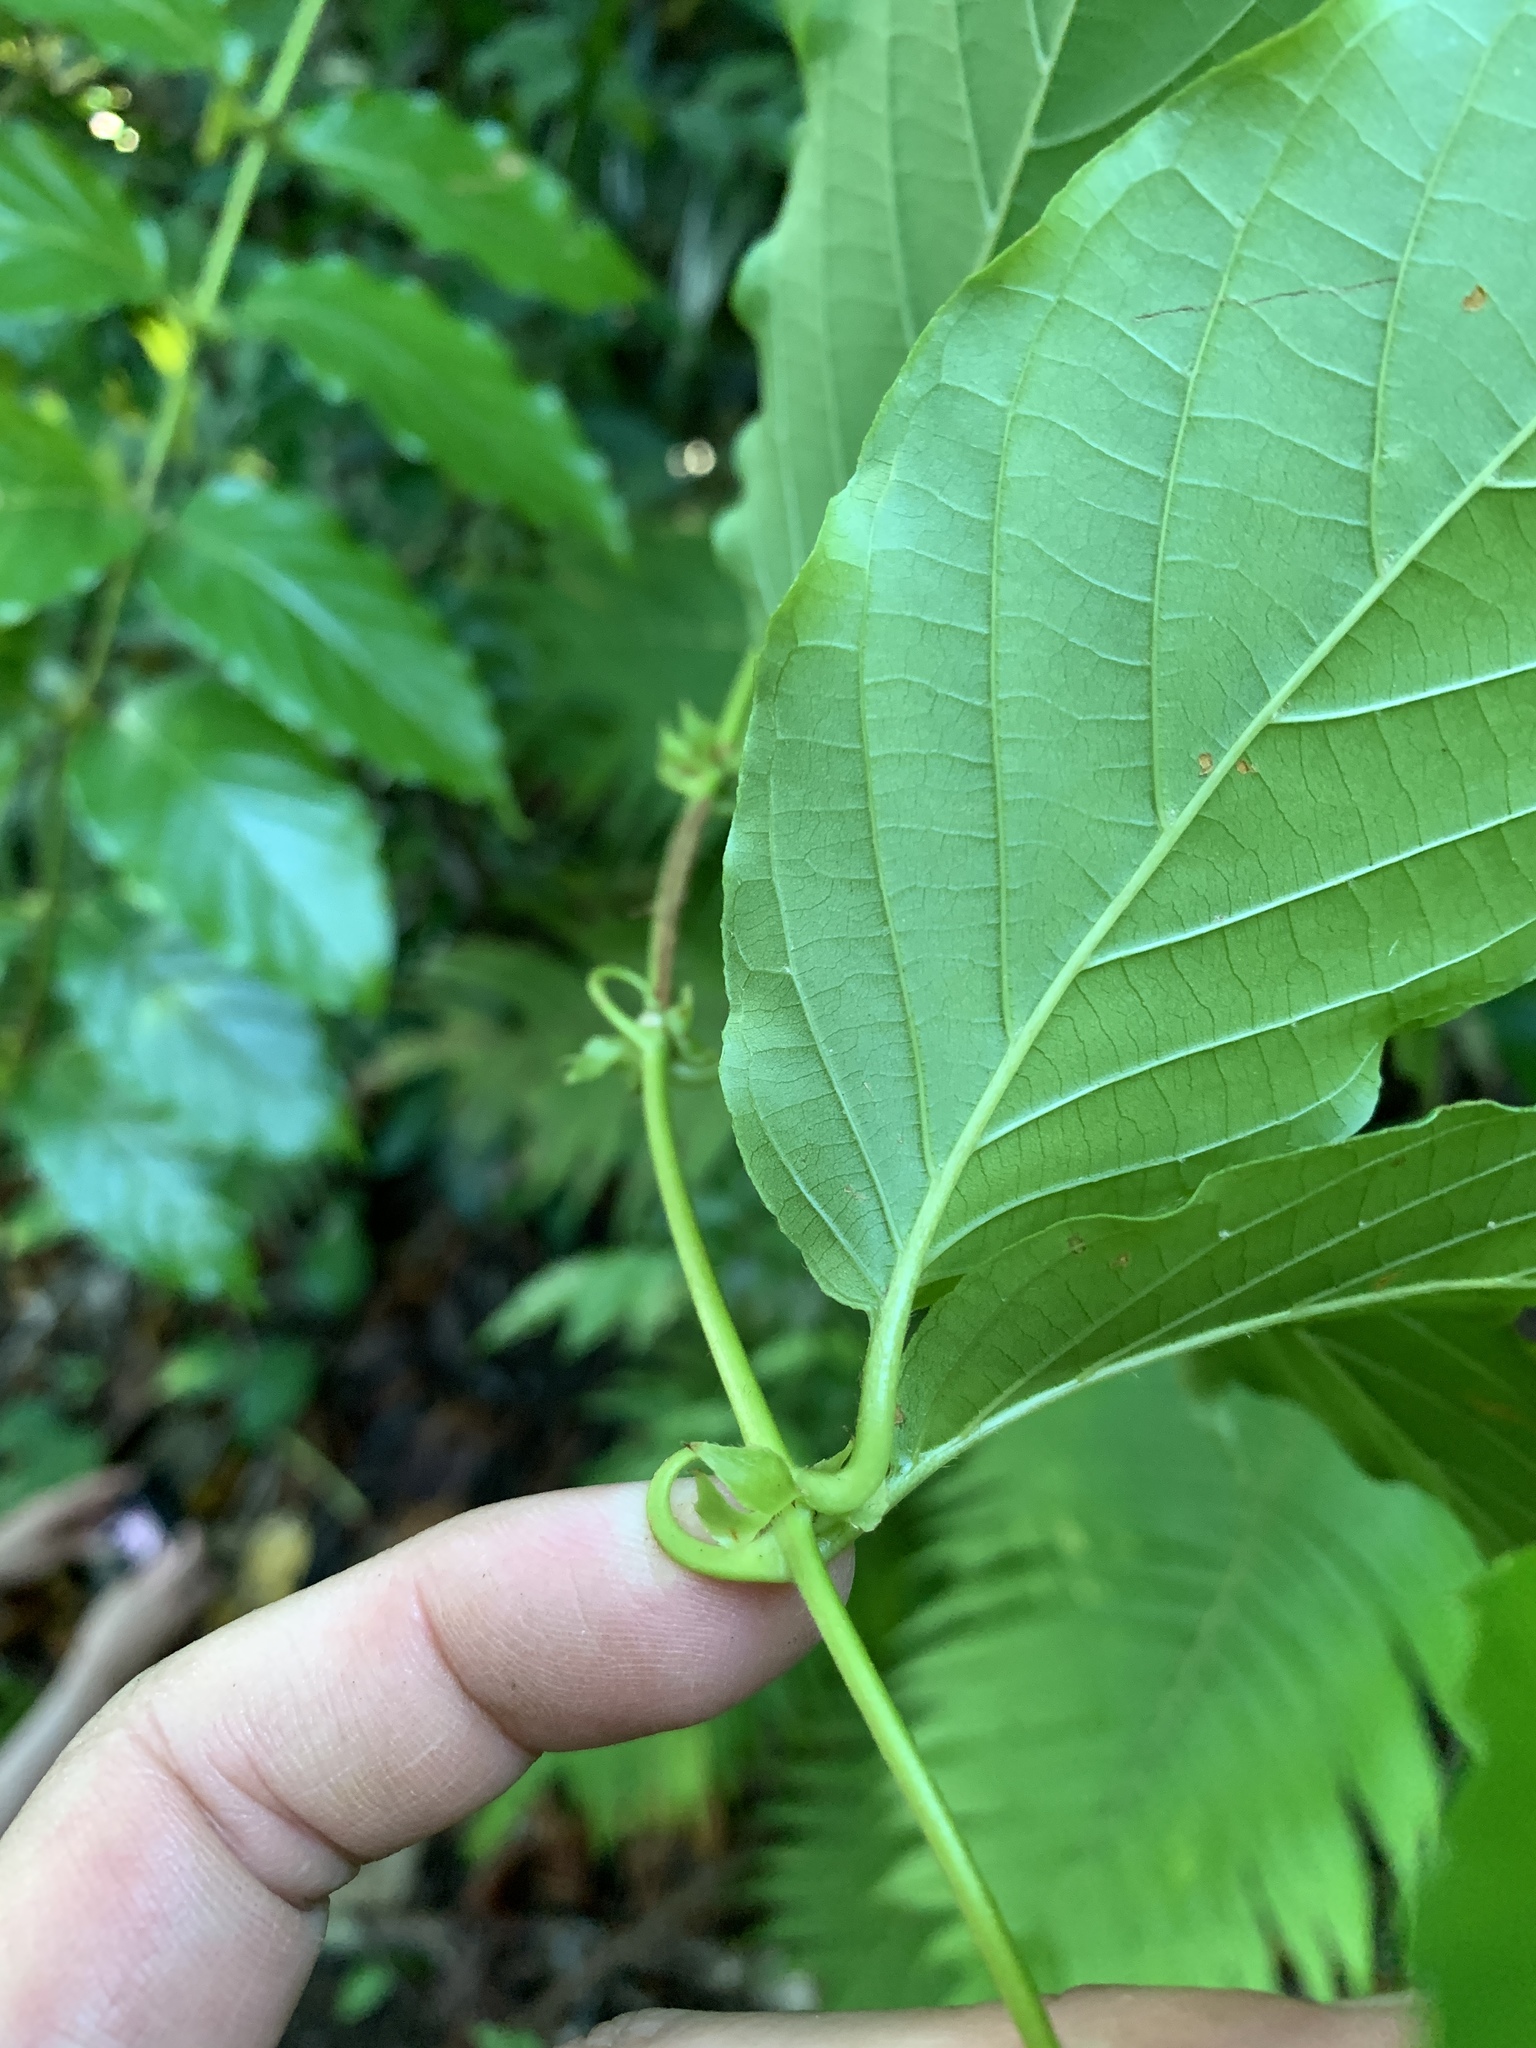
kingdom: Plantae
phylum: Tracheophyta
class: Magnoliopsida
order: Gentianales
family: Rubiaceae
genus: Uncaria
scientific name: Uncaria lanosa
